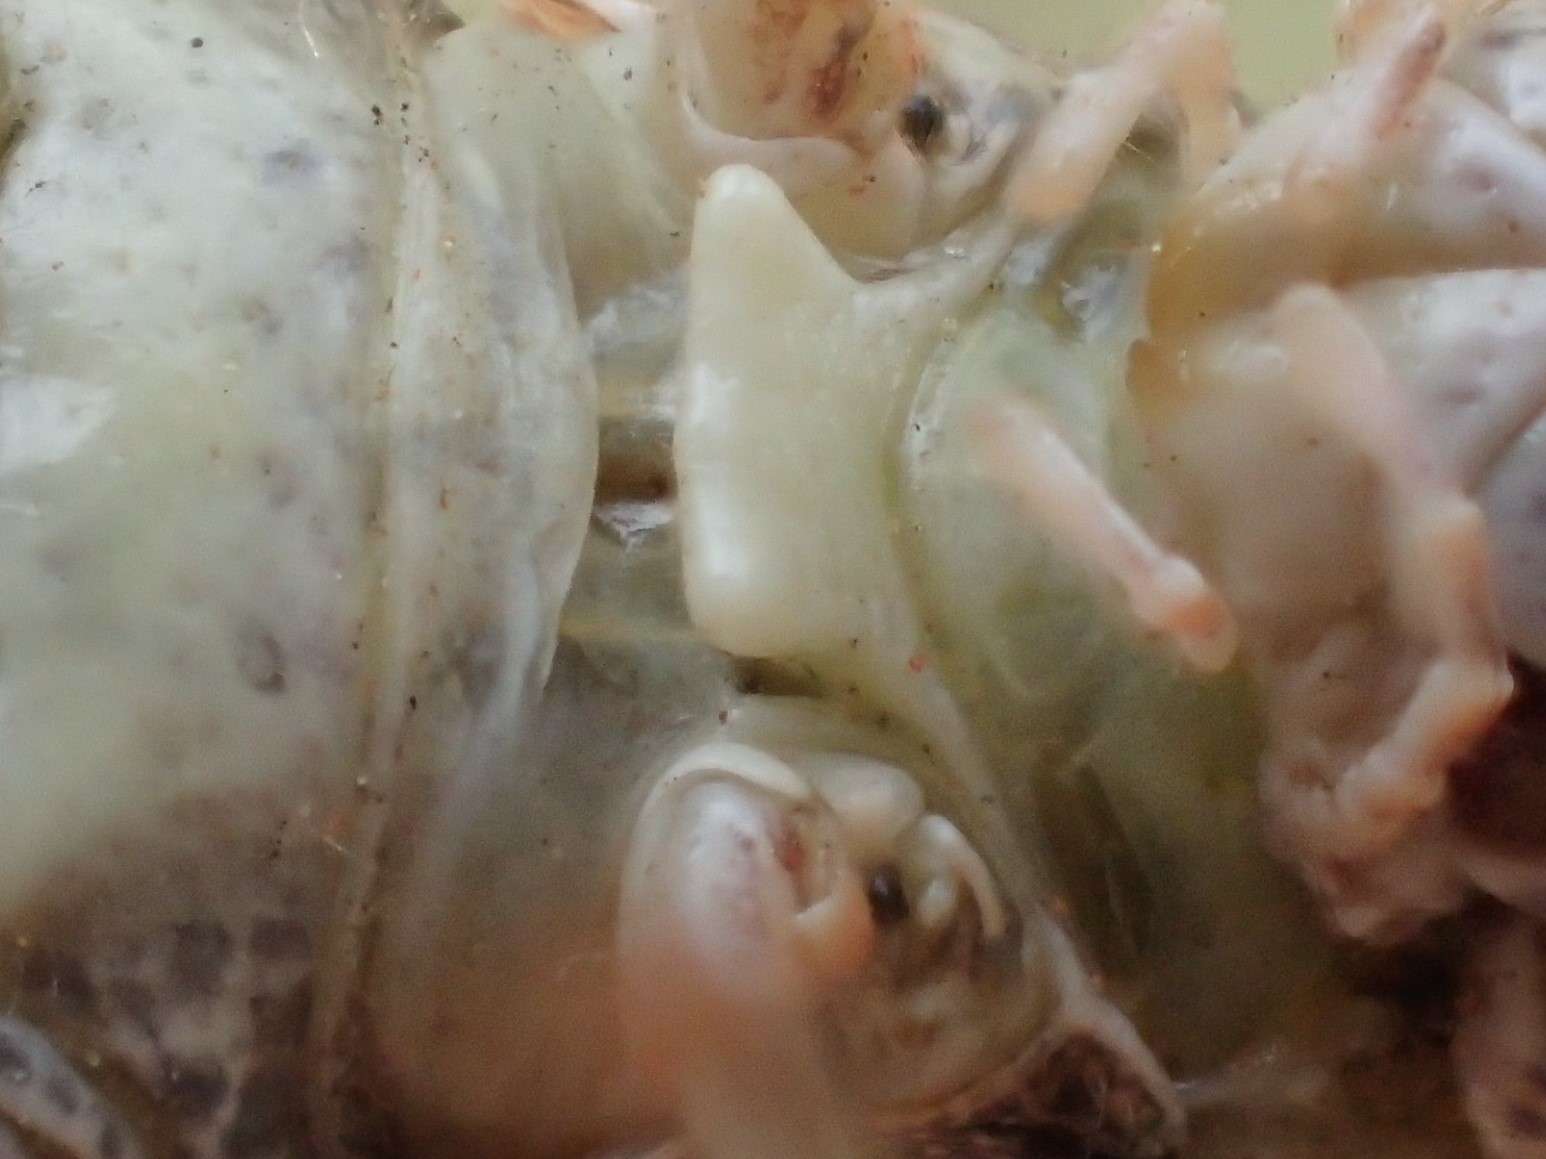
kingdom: Animalia
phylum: Arthropoda
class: Insecta
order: Orthoptera
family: Acrididae
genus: Azelota
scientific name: Azelota
